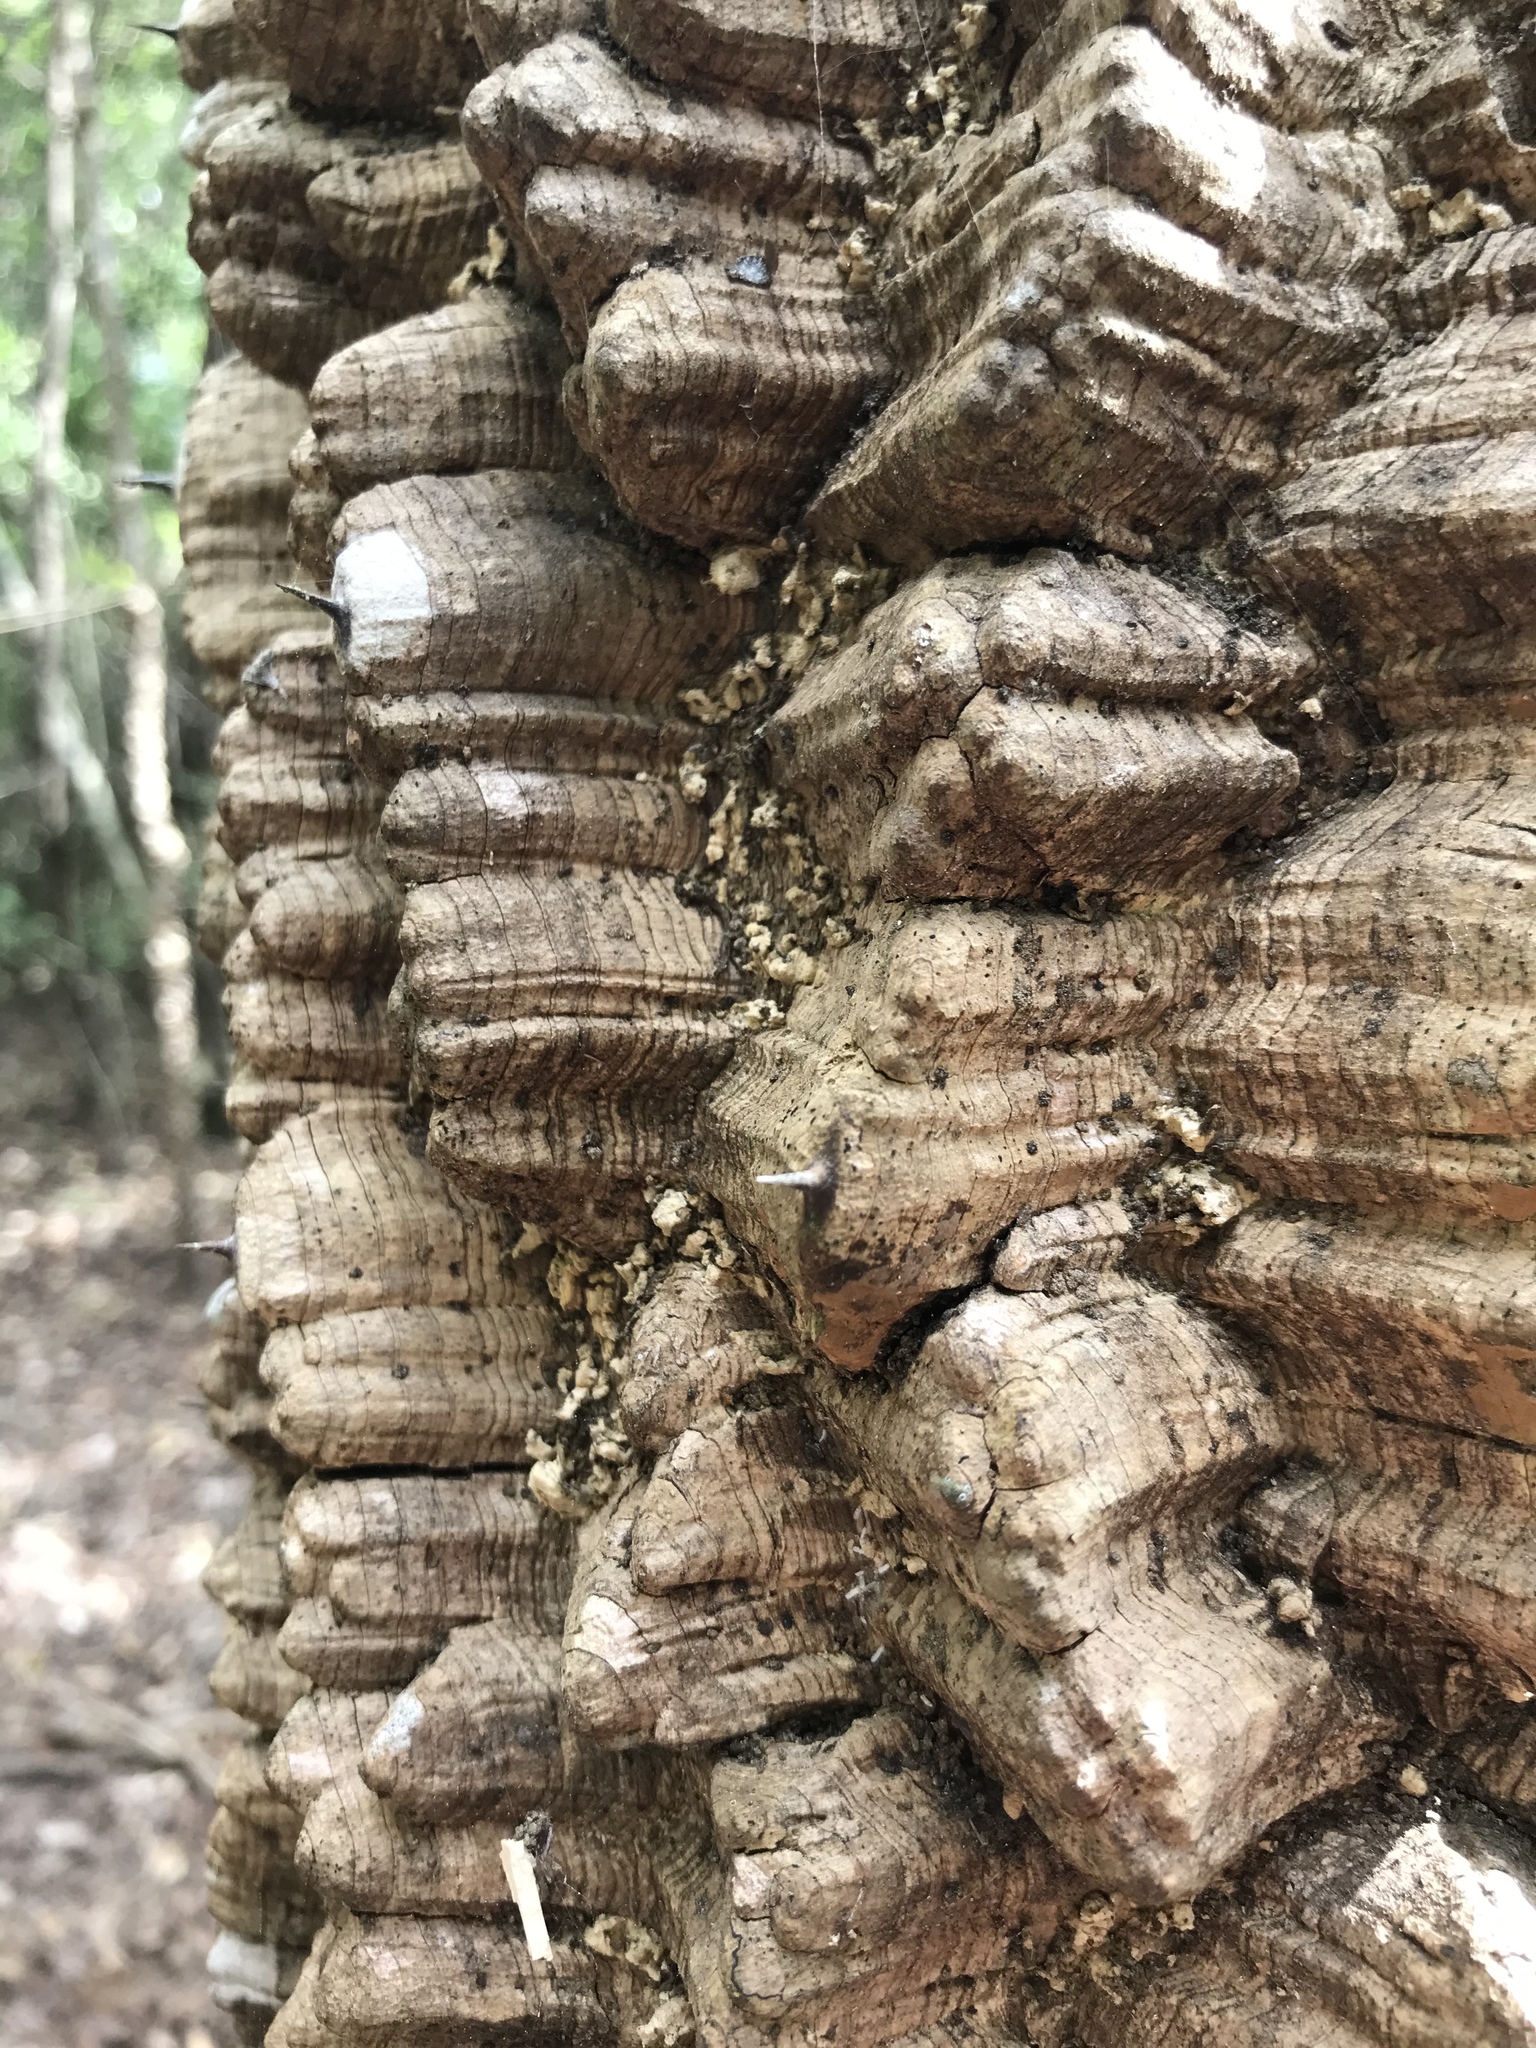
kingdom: Plantae
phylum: Tracheophyta
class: Magnoliopsida
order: Sapindales
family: Rutaceae
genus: Zanthoxylum
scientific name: Zanthoxylum clava-herculis
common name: Hercules'-club
